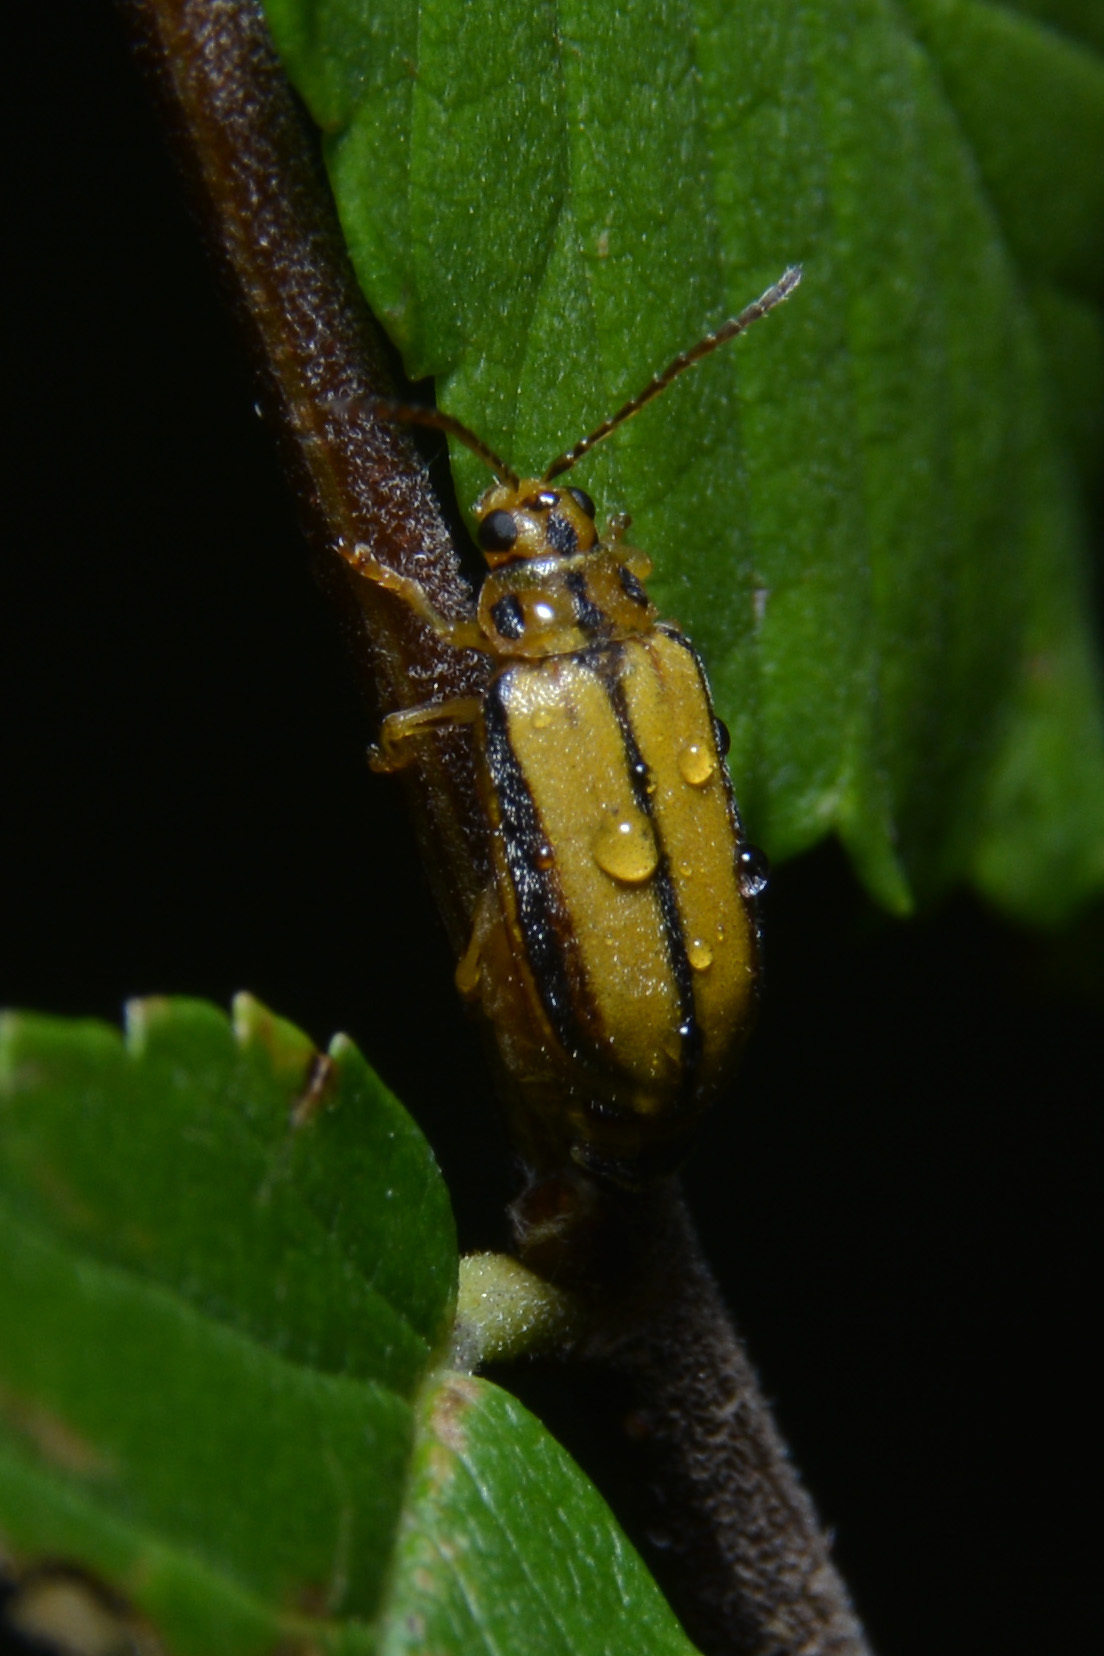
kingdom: Animalia
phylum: Arthropoda
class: Insecta
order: Coleoptera
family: Chrysomelidae
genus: Xanthogaleruca
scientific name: Xanthogaleruca luteola
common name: Elm leaf beetle
